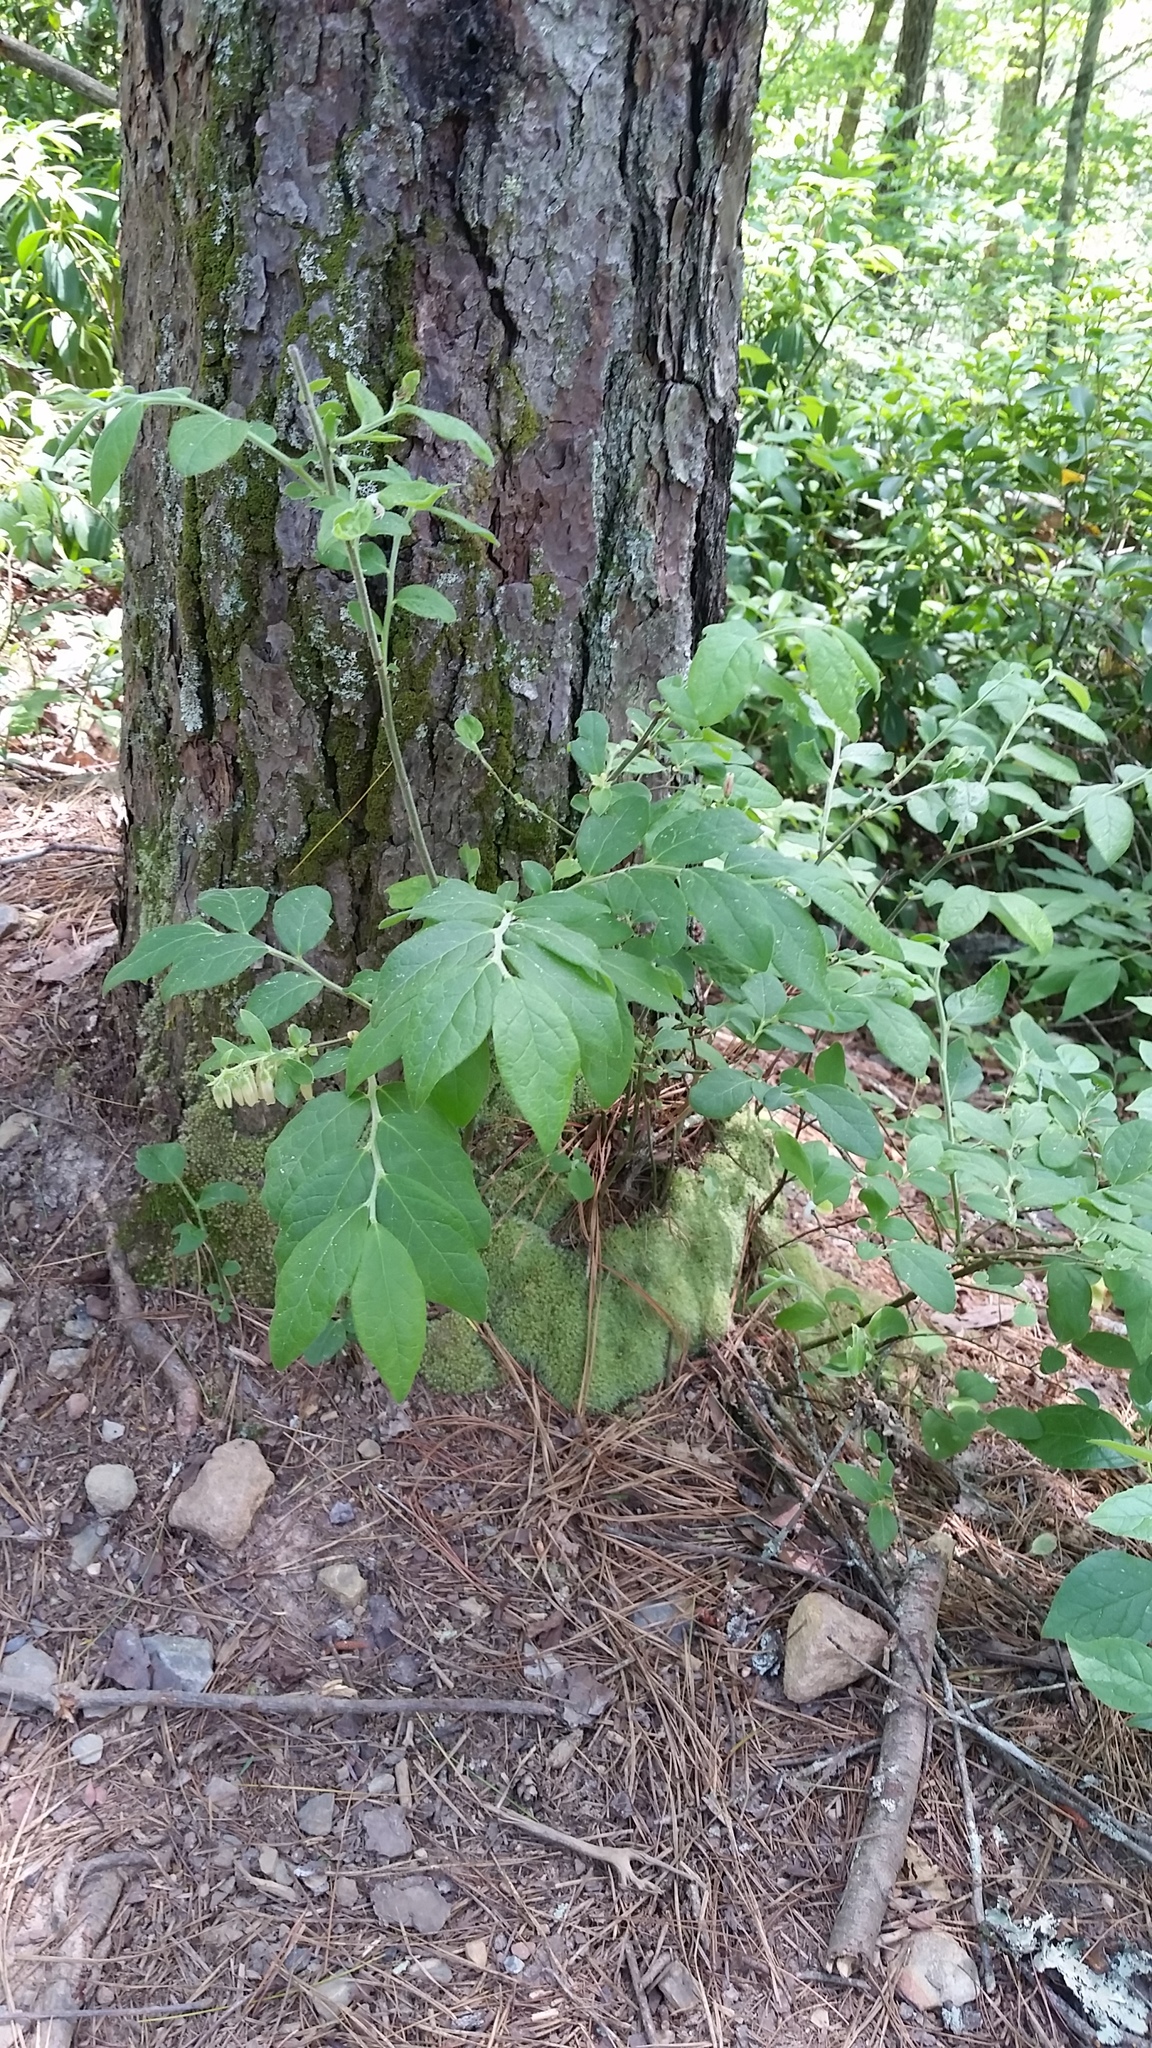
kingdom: Plantae
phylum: Tracheophyta
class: Magnoliopsida
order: Ericales
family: Ericaceae
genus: Vaccinium
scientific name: Vaccinium hirsutum
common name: Woolly-berry
